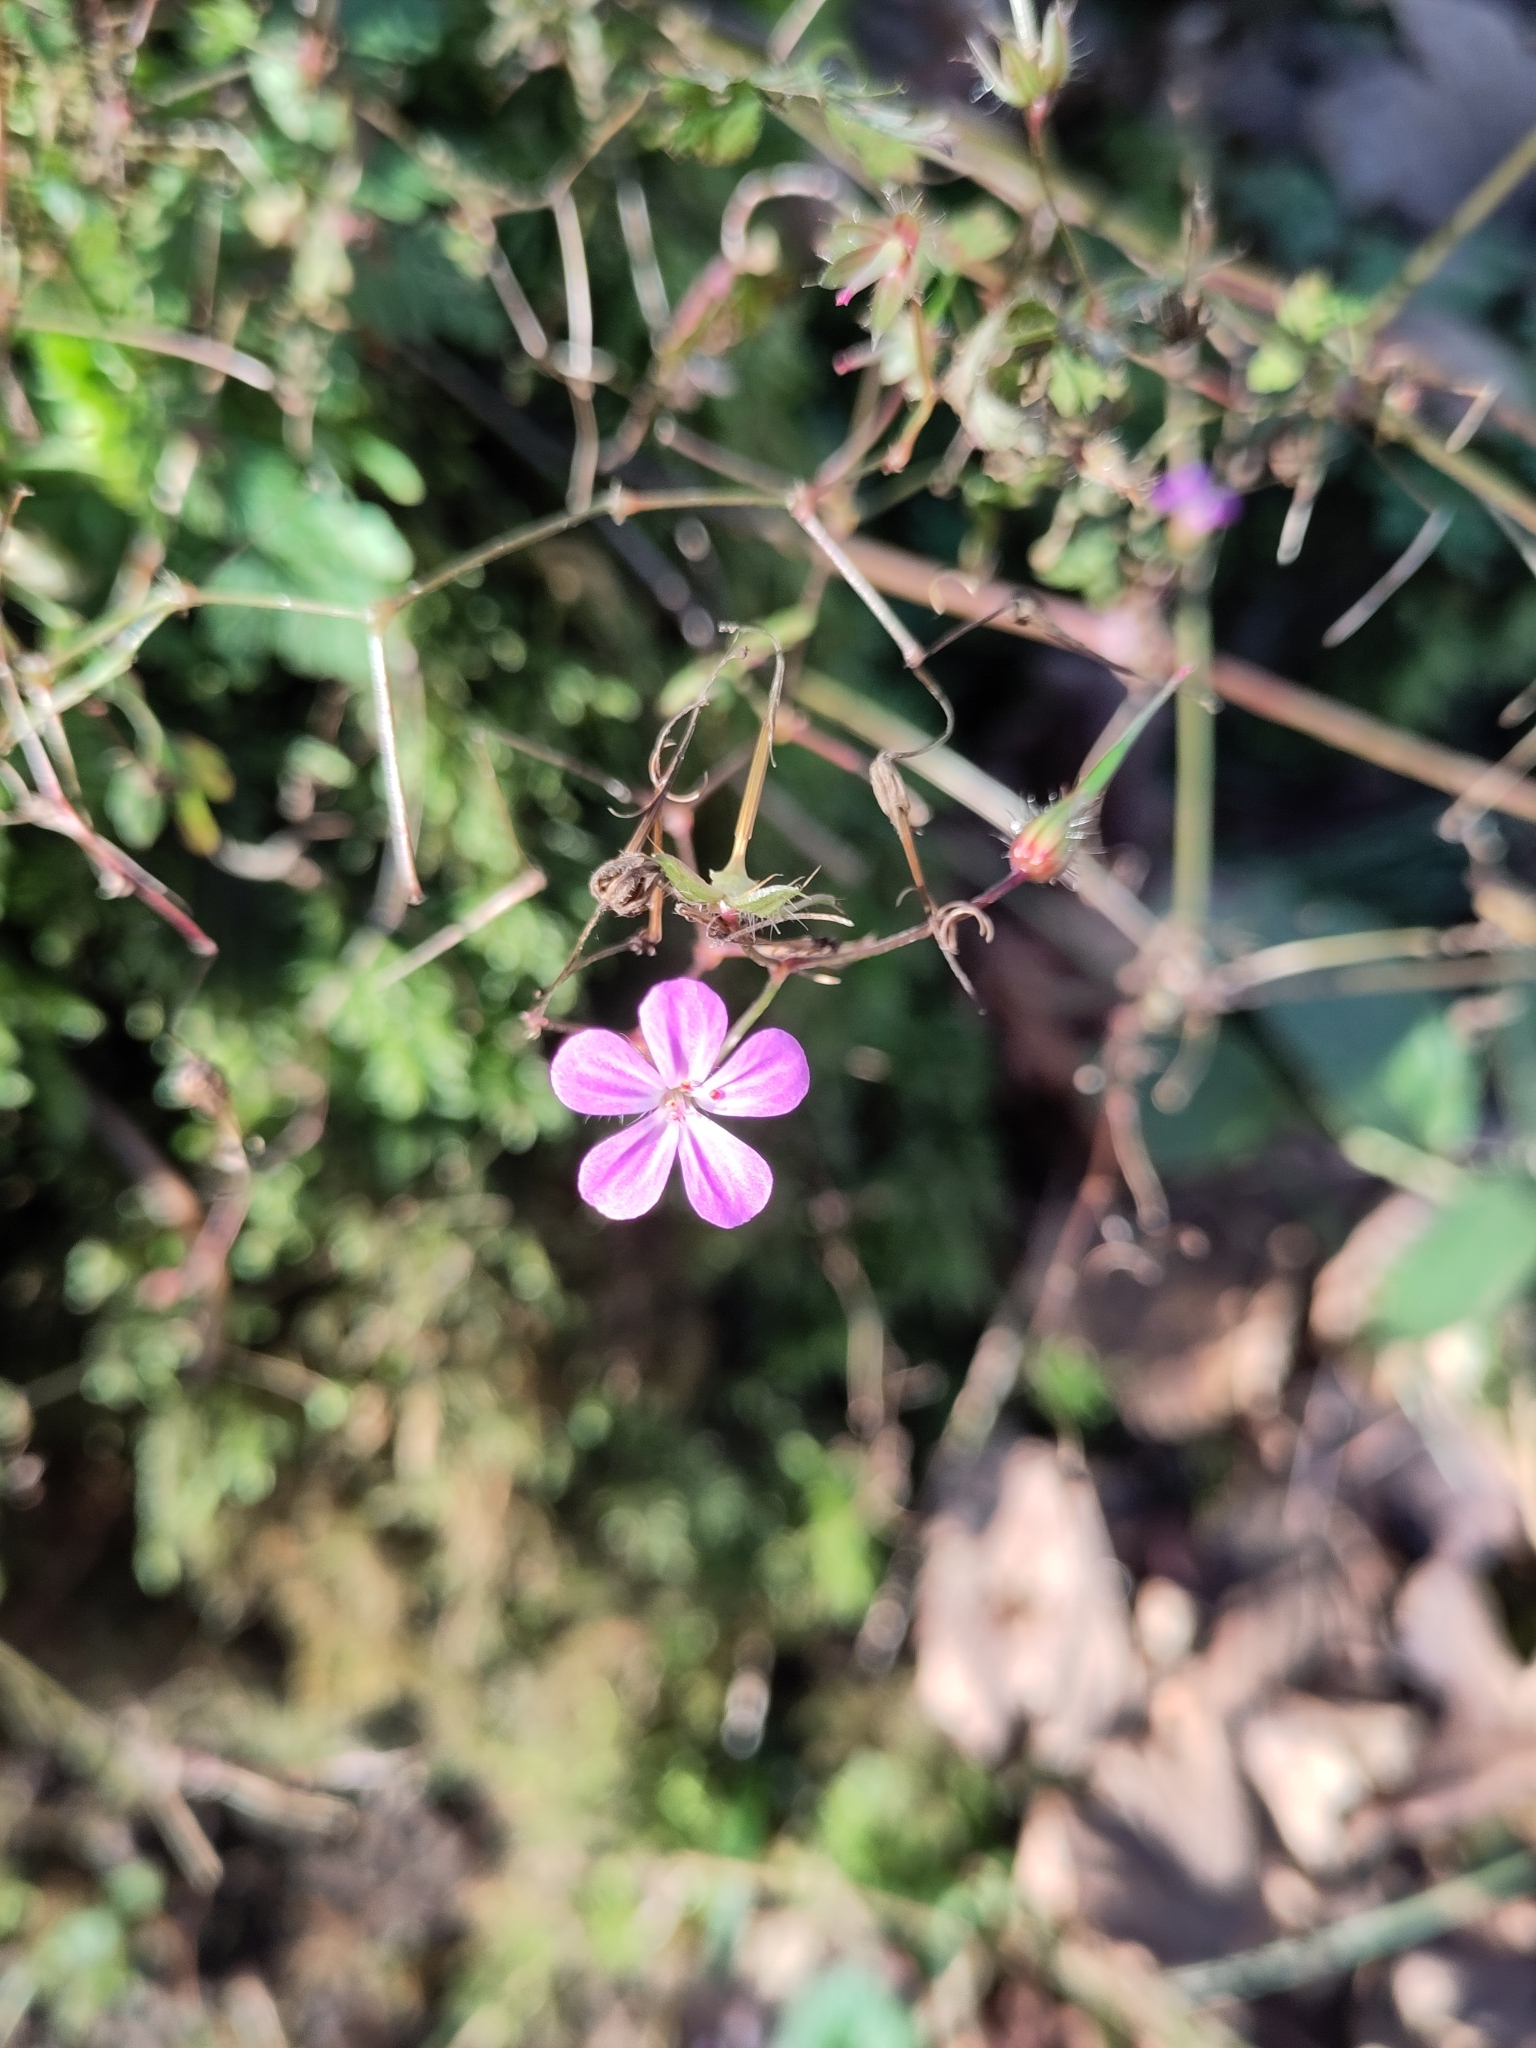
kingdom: Plantae
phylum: Tracheophyta
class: Magnoliopsida
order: Geraniales
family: Geraniaceae
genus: Geranium
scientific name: Geranium robertianum
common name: Herb-robert
